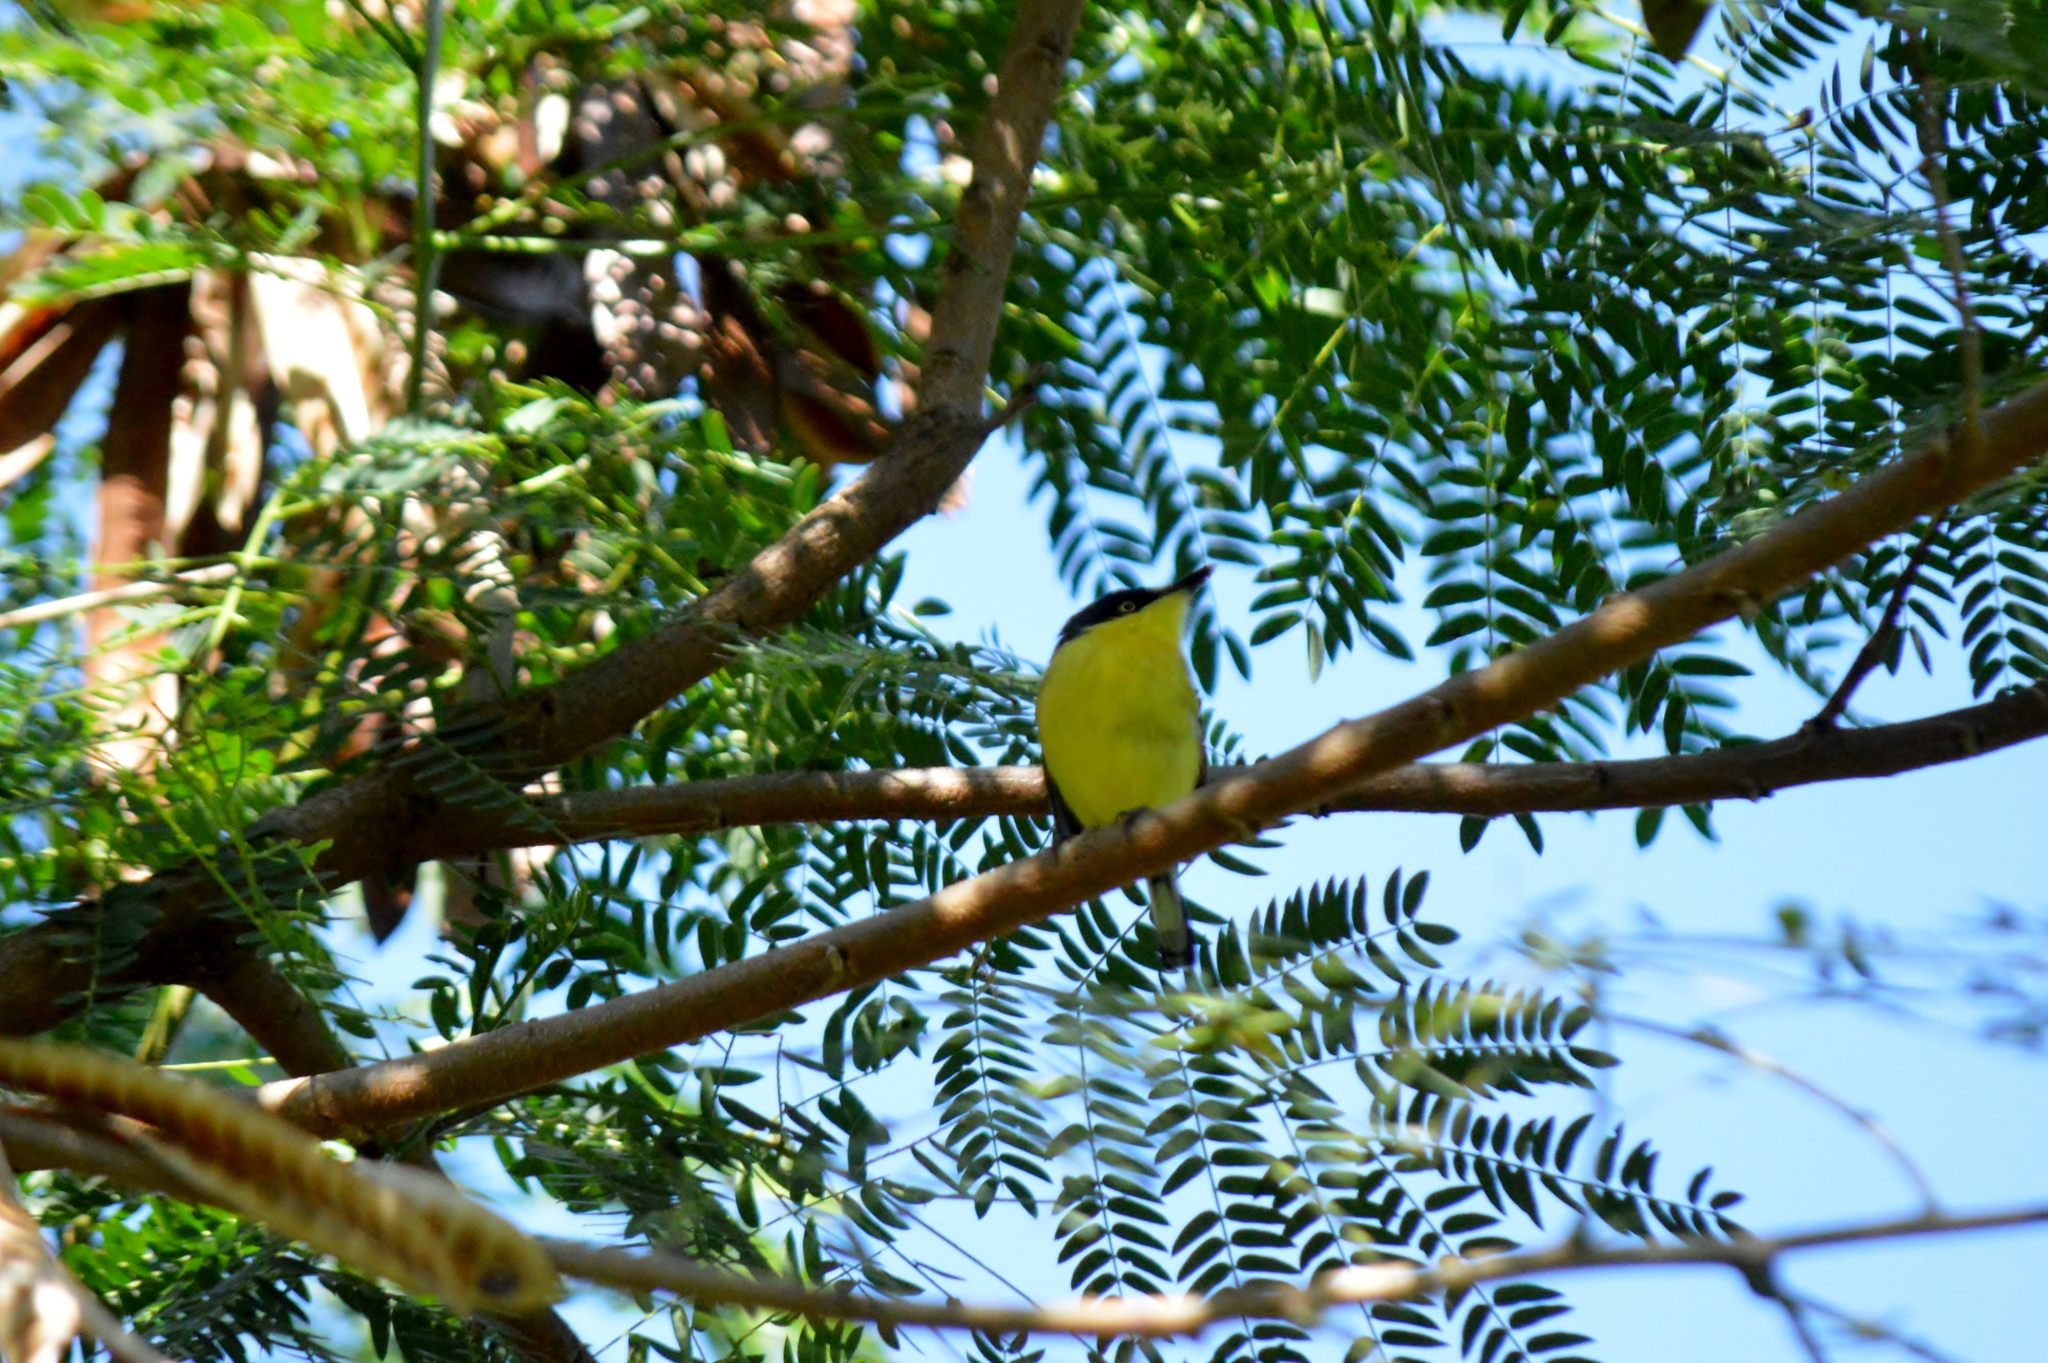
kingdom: Animalia
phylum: Chordata
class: Aves
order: Passeriformes
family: Tyrannidae
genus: Todirostrum
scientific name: Todirostrum cinereum
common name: Common tody-flycatcher
